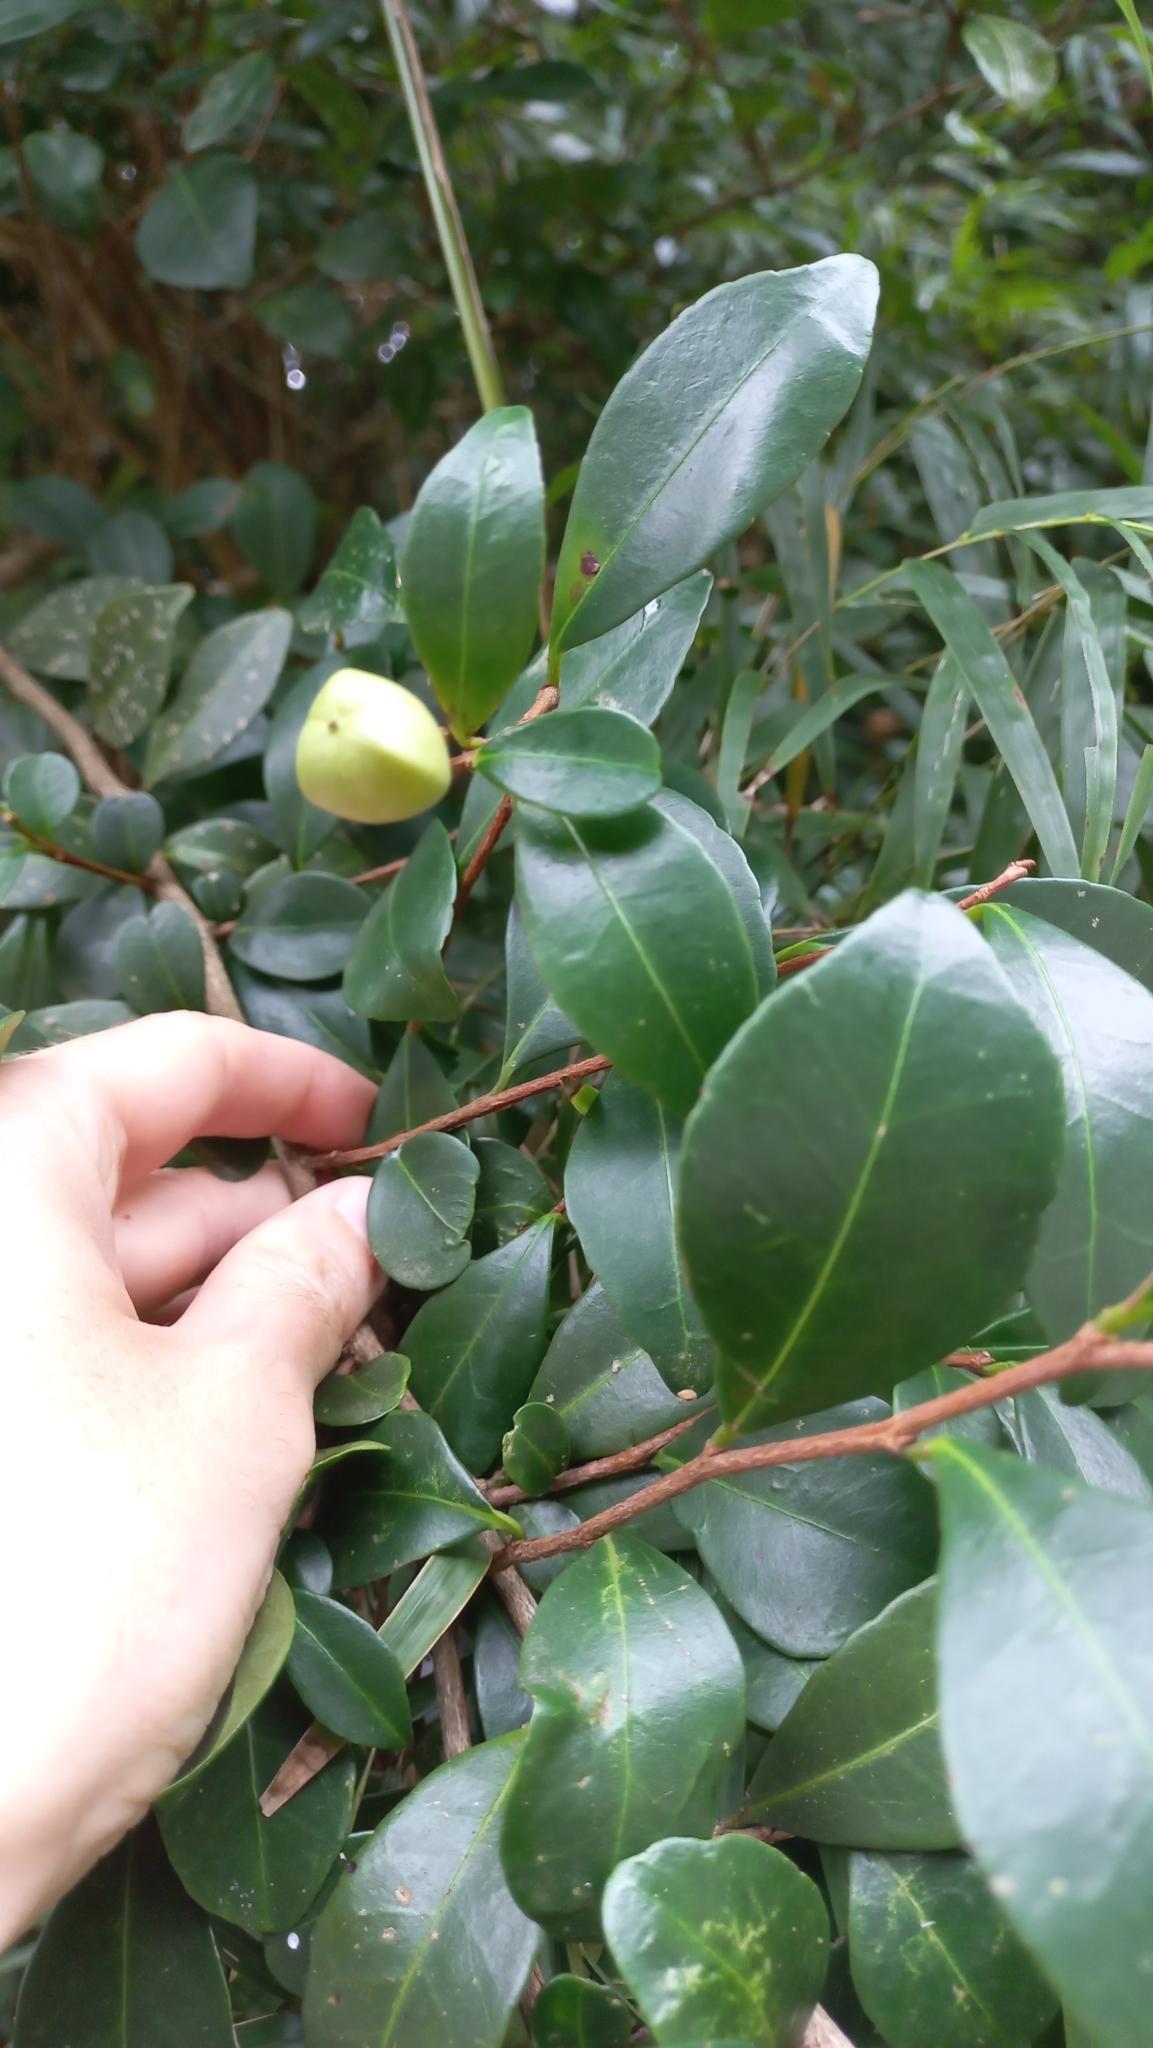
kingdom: Plantae
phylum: Tracheophyta
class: Magnoliopsida
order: Malpighiales
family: Euphorbiaceae
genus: Sebastiania
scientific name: Sebastiania brasiliensis
